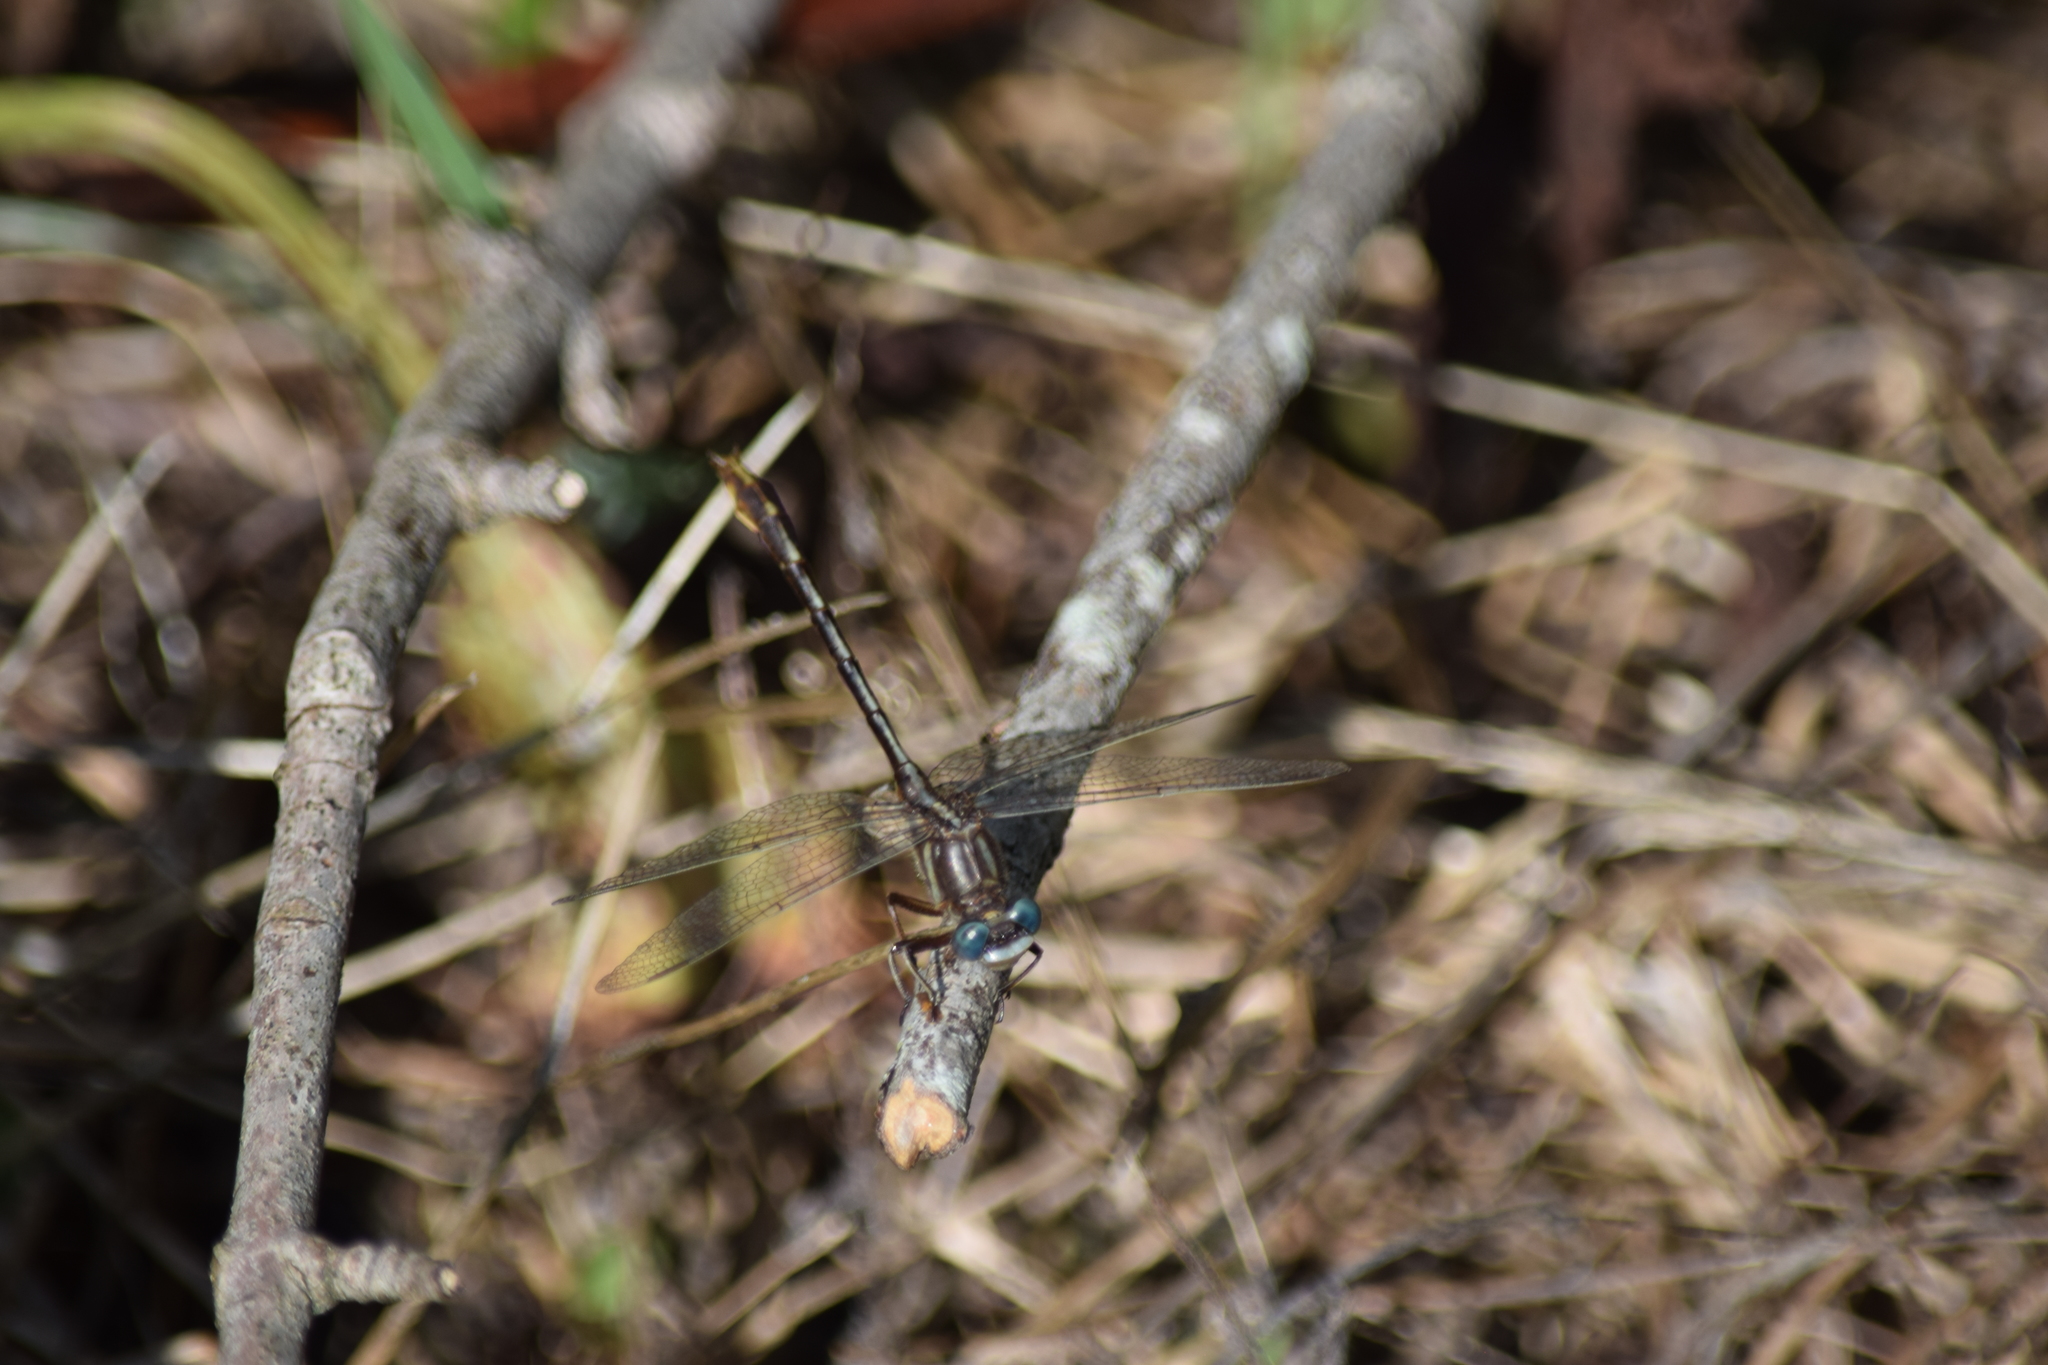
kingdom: Animalia
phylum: Arthropoda
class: Insecta
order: Odonata
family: Gomphidae
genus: Phanogomphus
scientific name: Phanogomphus exilis
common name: Lancet clubtail
